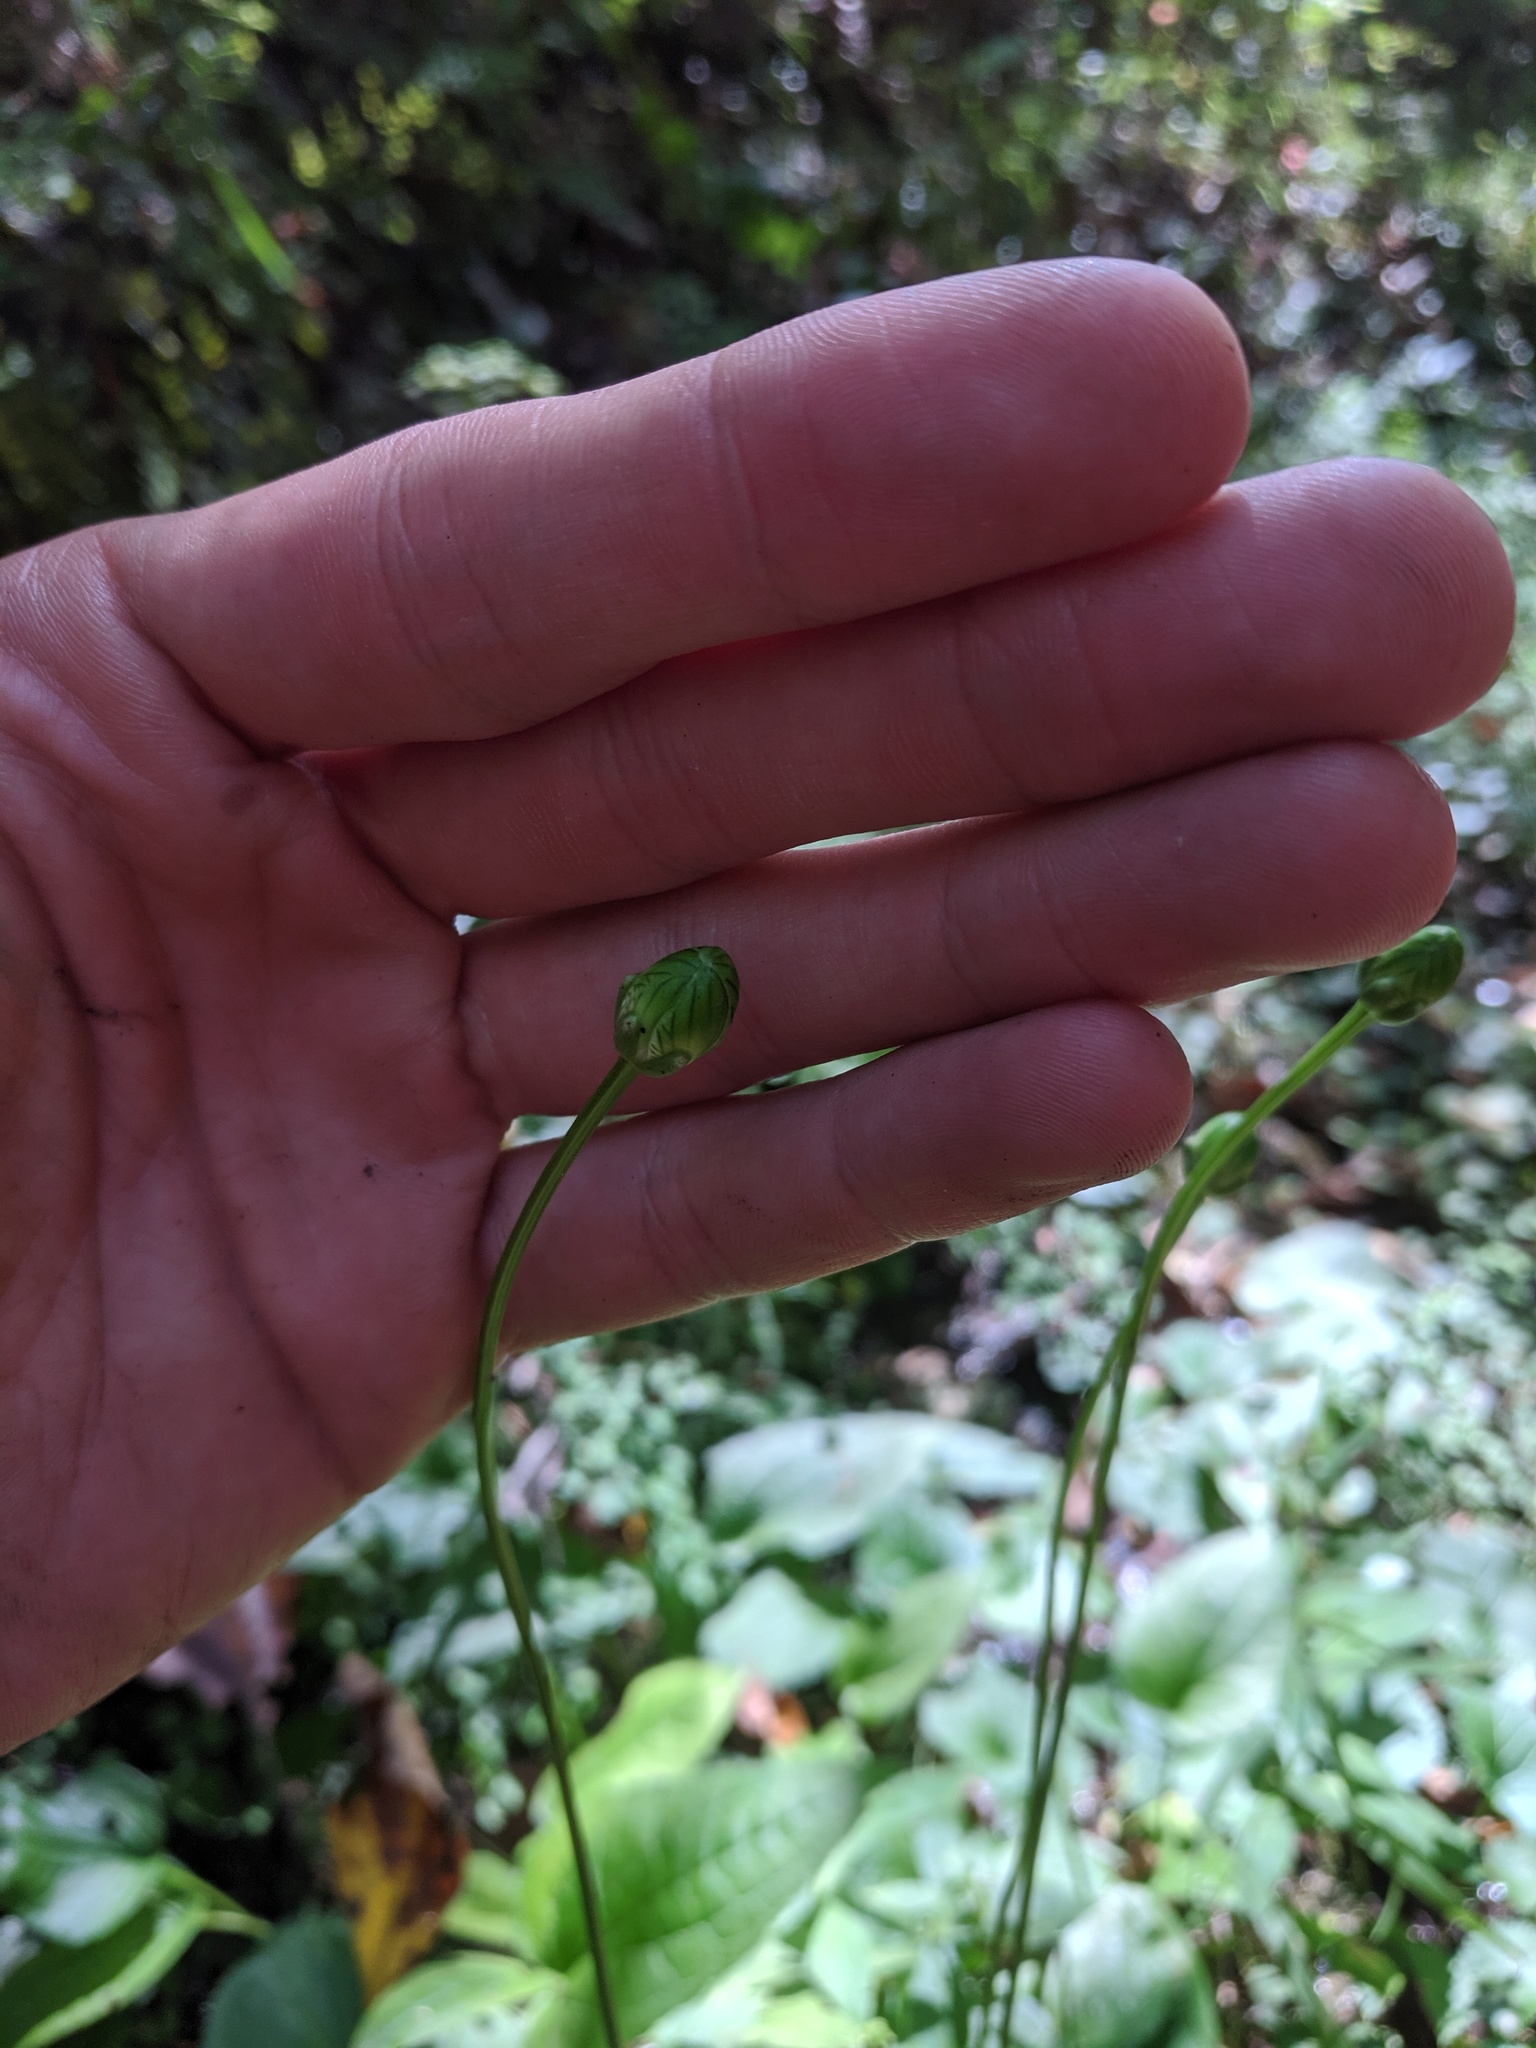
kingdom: Plantae
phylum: Tracheophyta
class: Magnoliopsida
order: Celastrales
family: Parnassiaceae
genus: Parnassia
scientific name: Parnassia grandifolia
